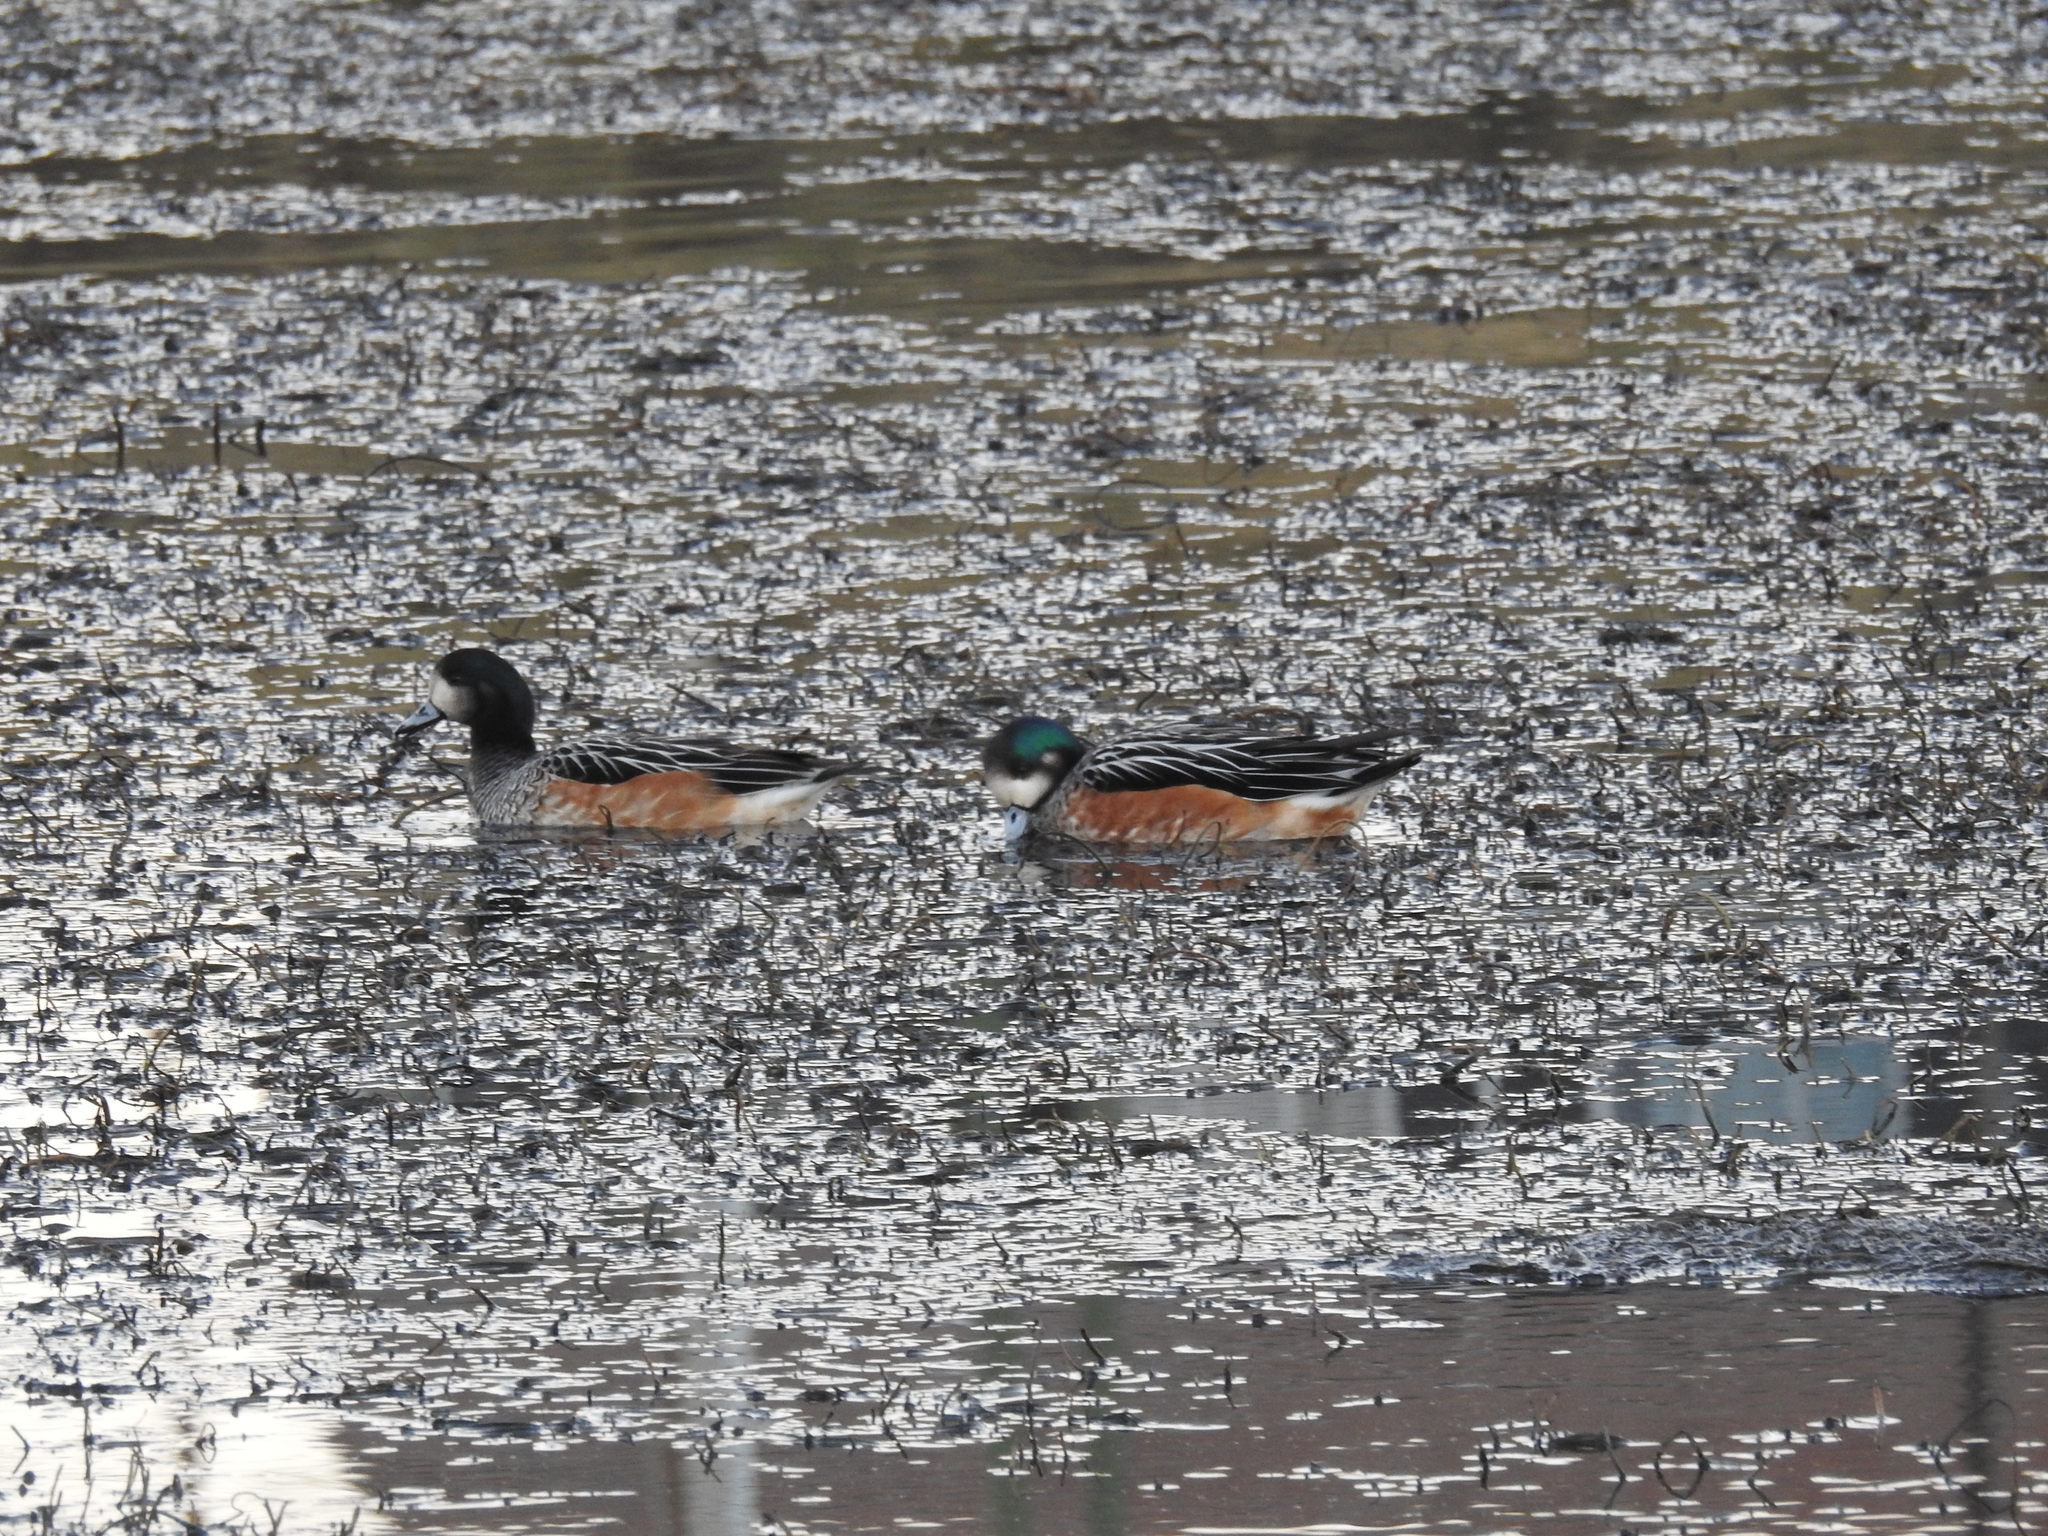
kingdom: Animalia
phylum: Chordata
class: Aves
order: Anseriformes
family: Anatidae
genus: Mareca
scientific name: Mareca sibilatrix
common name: Chiloe wigeon
